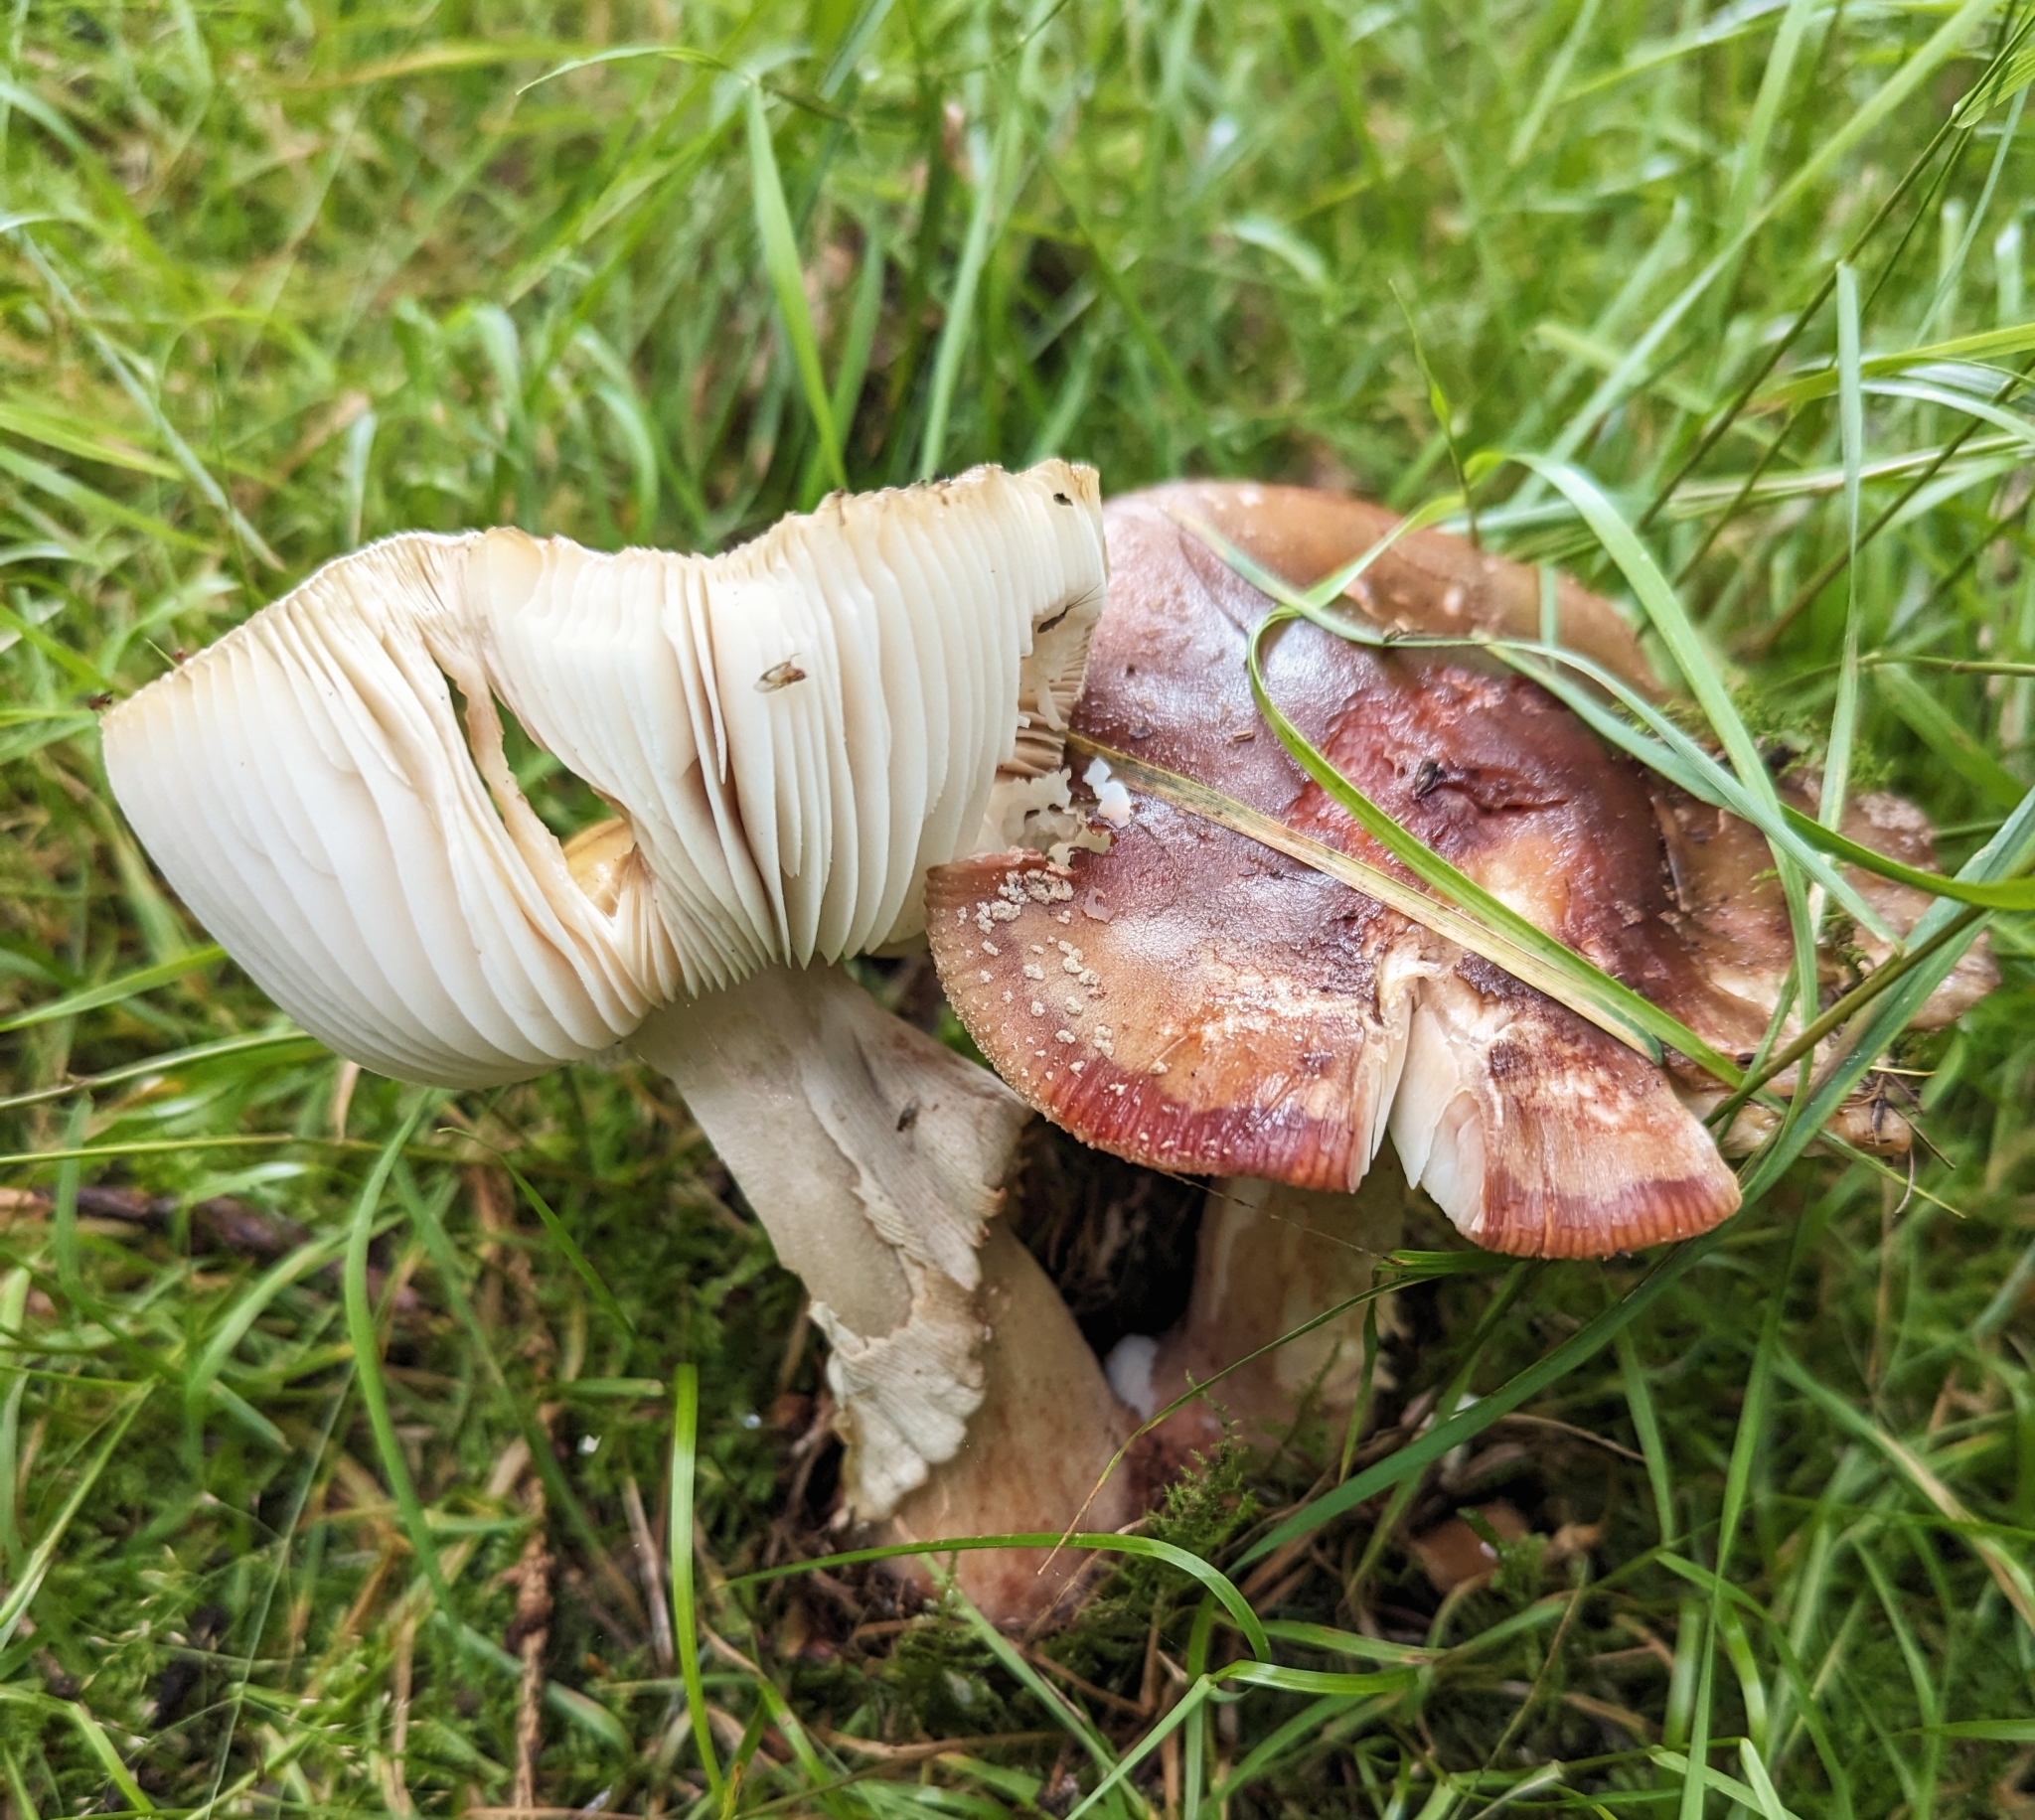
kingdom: Fungi
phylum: Basidiomycota
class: Agaricomycetes
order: Agaricales
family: Amanitaceae
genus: Amanita
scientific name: Amanita rubescens
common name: Blusher
